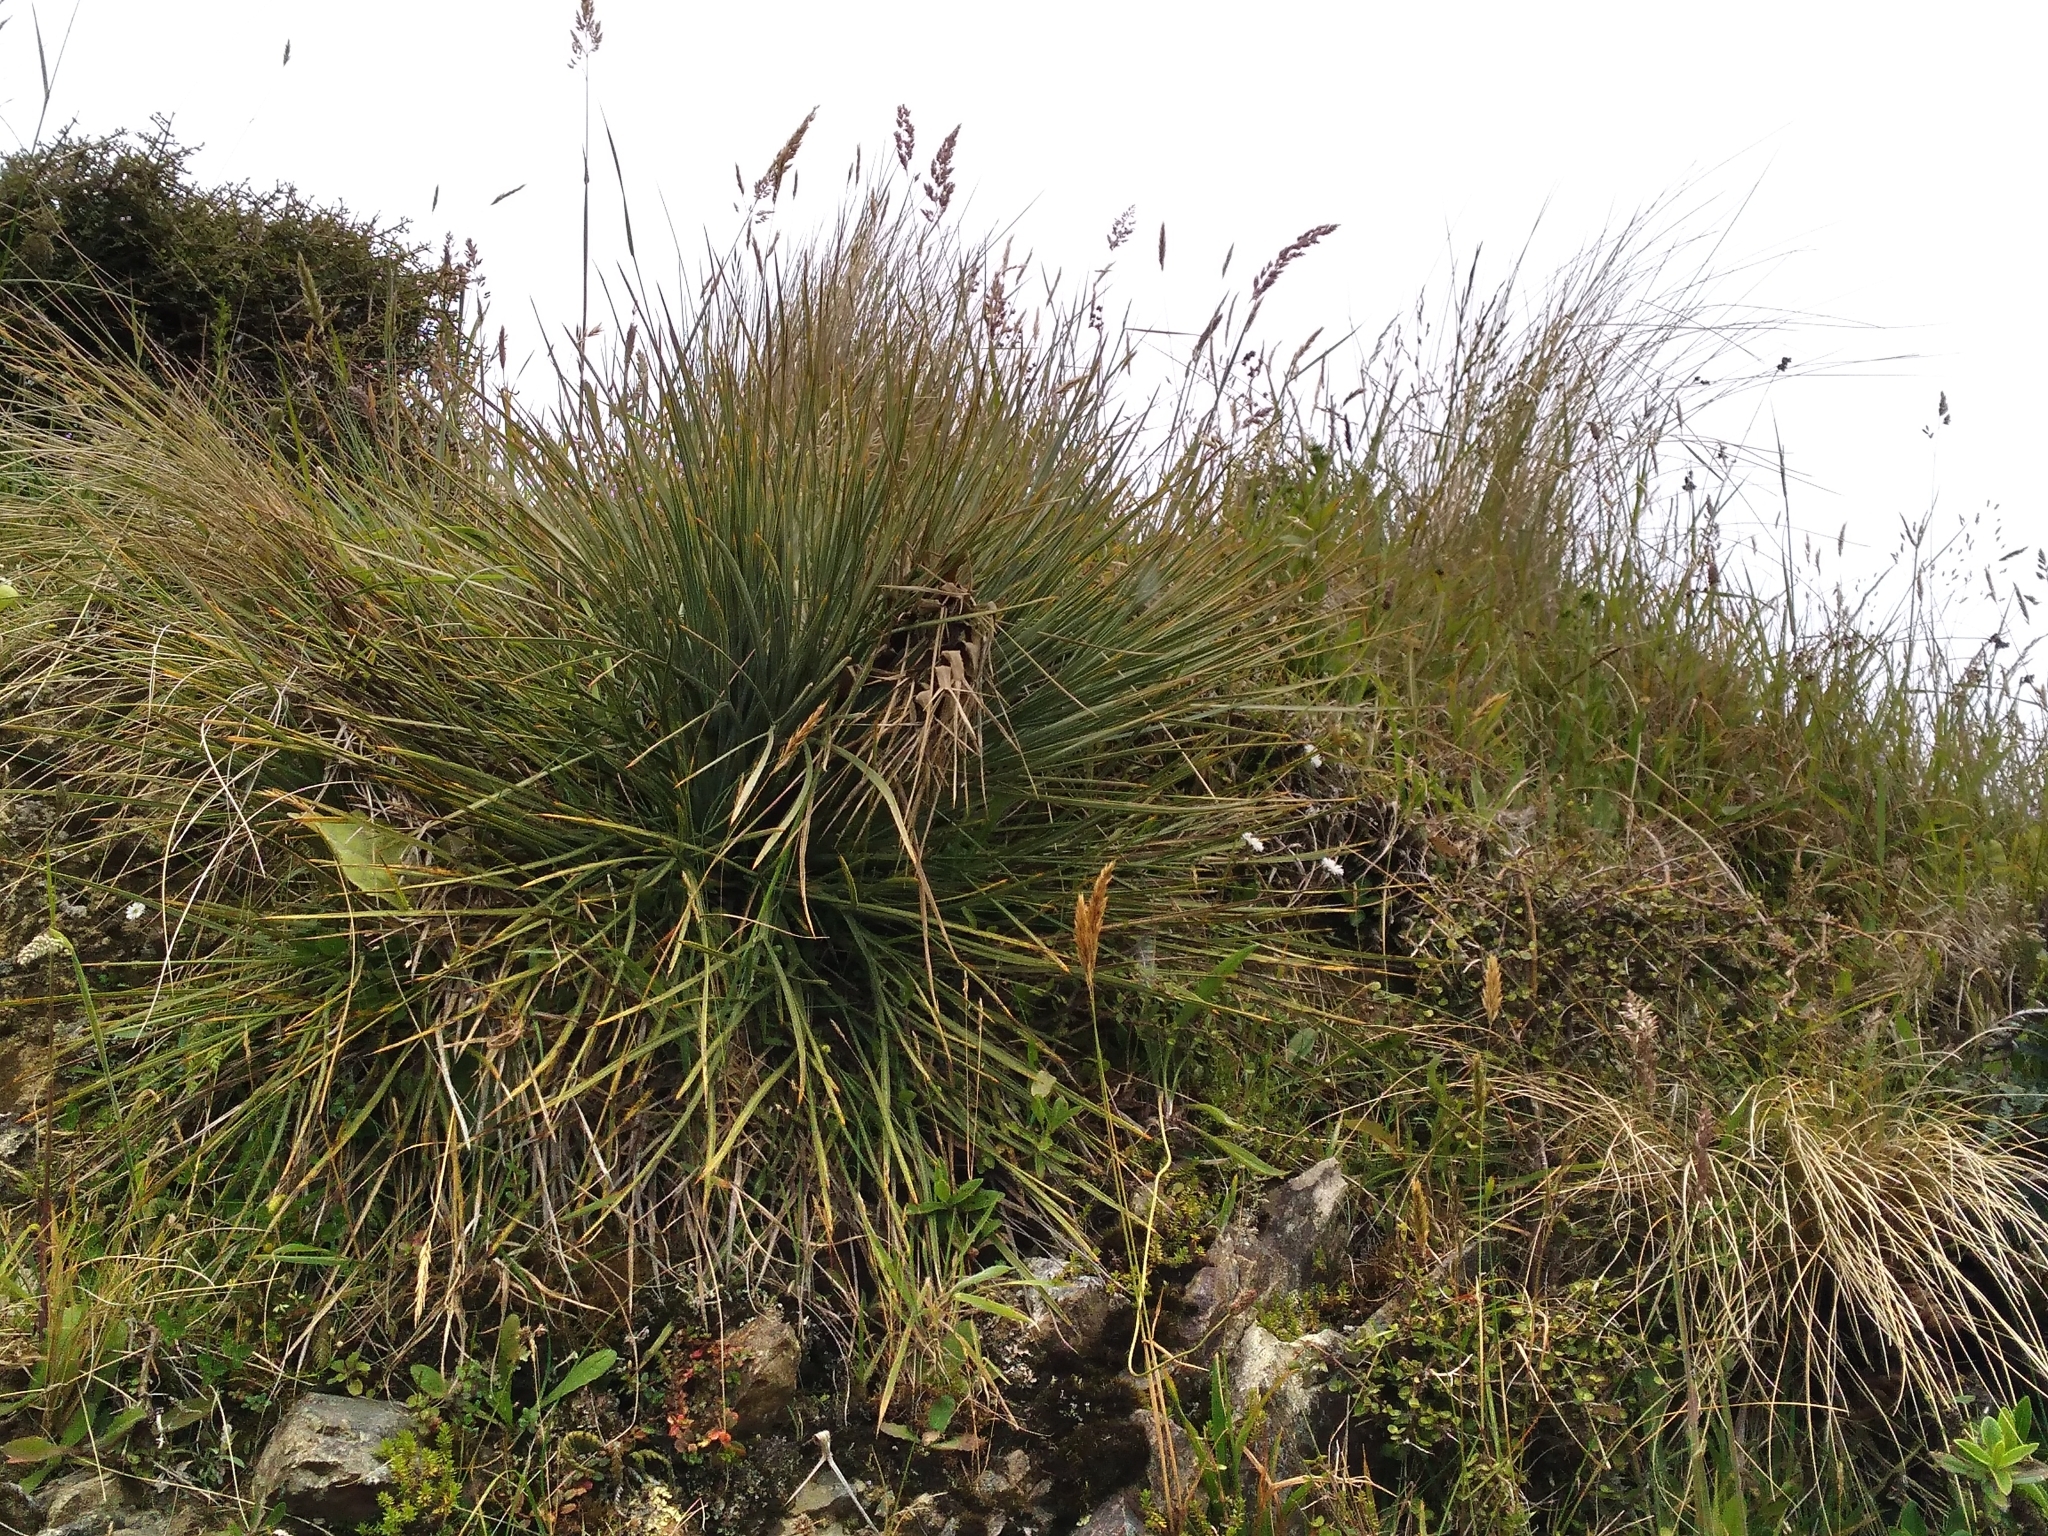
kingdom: Plantae
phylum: Tracheophyta
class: Magnoliopsida
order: Apiales
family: Apiaceae
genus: Aciphylla
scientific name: Aciphylla squarrosa
